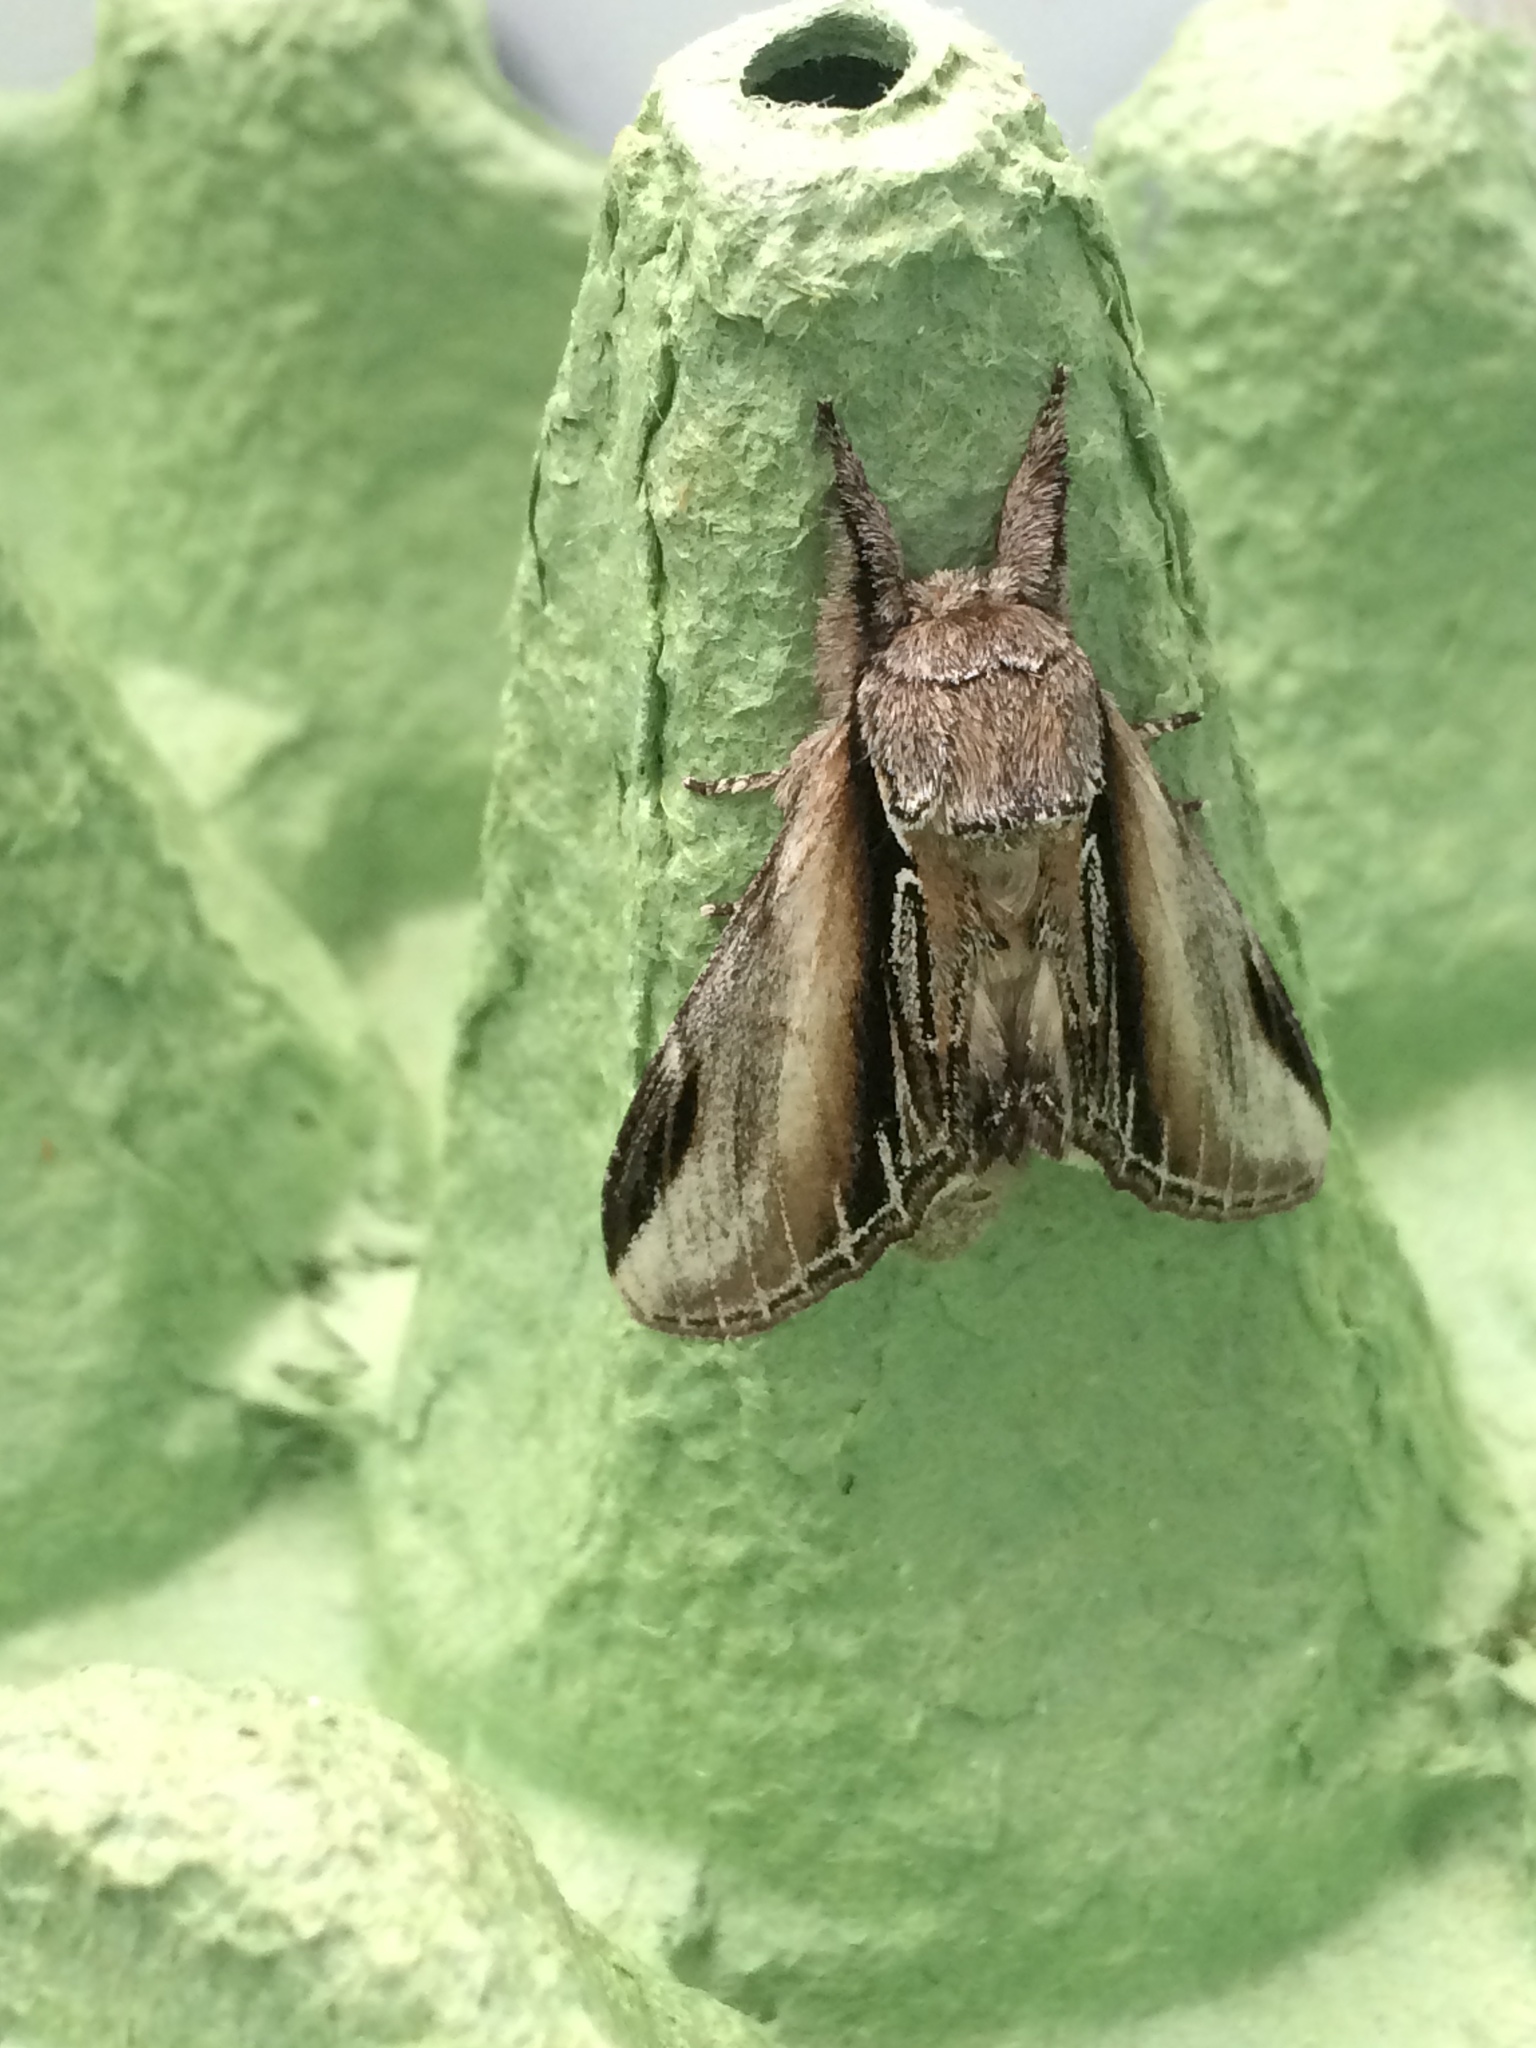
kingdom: Animalia
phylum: Arthropoda
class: Insecta
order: Lepidoptera
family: Notodontidae
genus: Pheosia
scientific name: Pheosia tremula
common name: Swallow prominent
